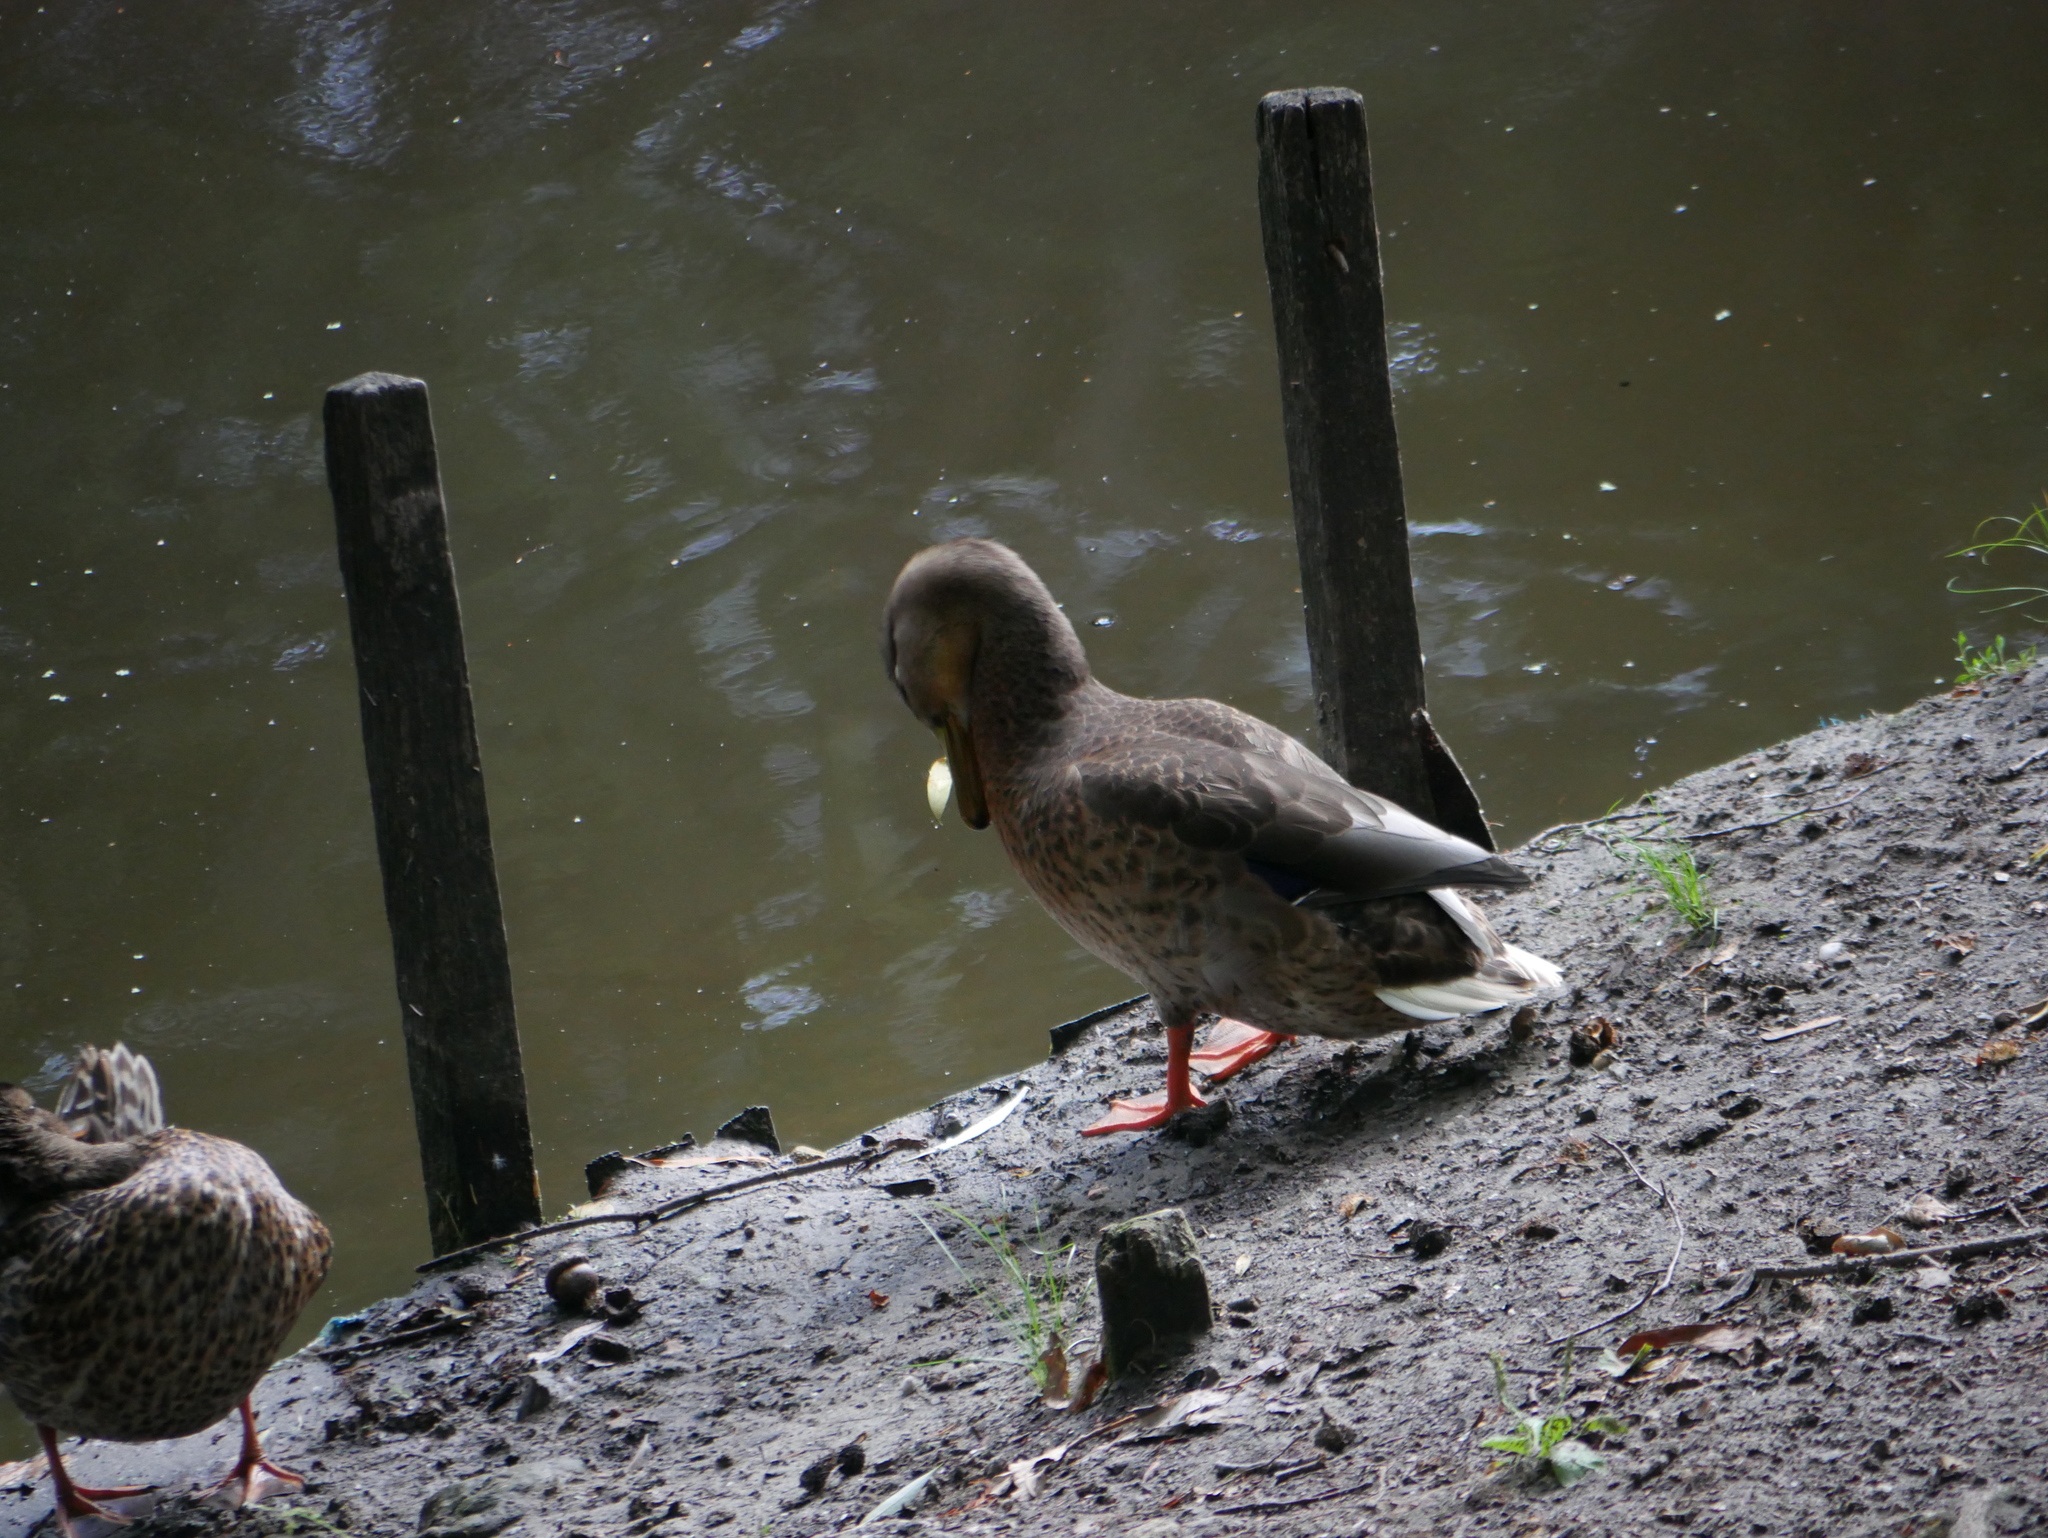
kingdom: Animalia
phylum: Chordata
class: Aves
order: Anseriformes
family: Anatidae
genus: Anas
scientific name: Anas platyrhynchos
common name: Mallard
